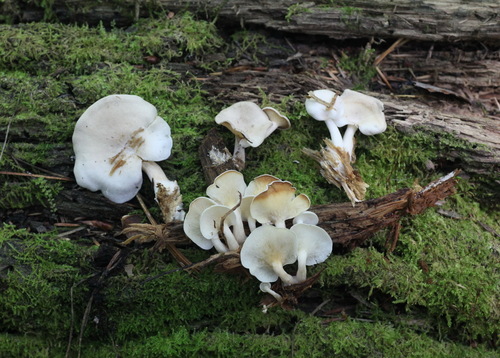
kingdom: Fungi
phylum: Basidiomycota
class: Agaricomycetes
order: Agaricales
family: Lyophyllaceae
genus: Ossicaulis
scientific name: Ossicaulis lignatilis
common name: Mealy oyster
